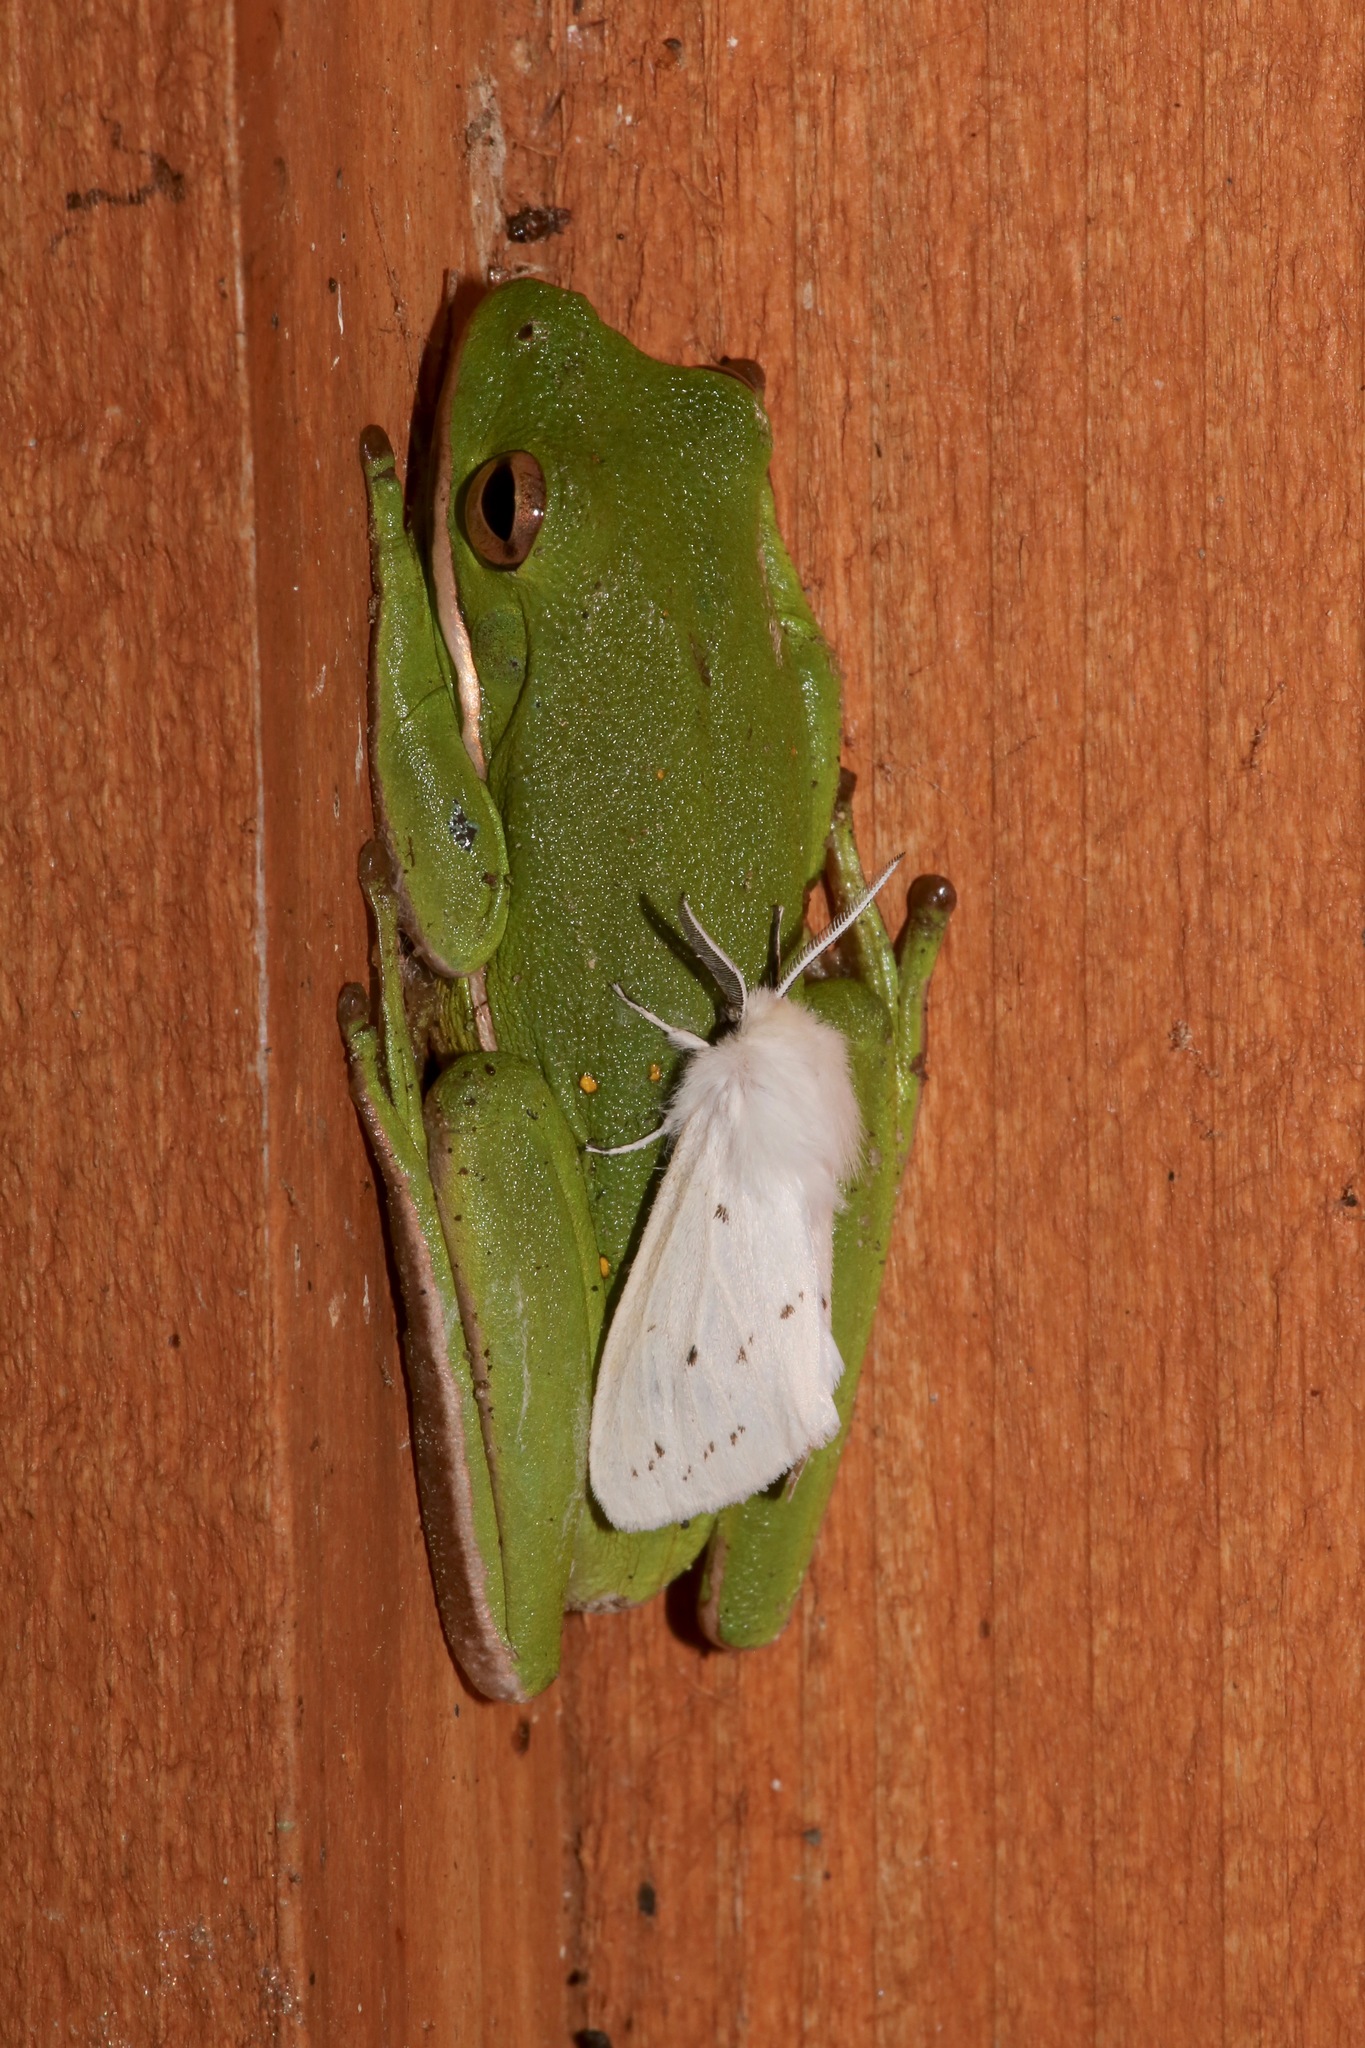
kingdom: Animalia
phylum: Chordata
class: Amphibia
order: Anura
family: Hylidae
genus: Dryophytes
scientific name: Dryophytes cinereus
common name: Green treefrog
